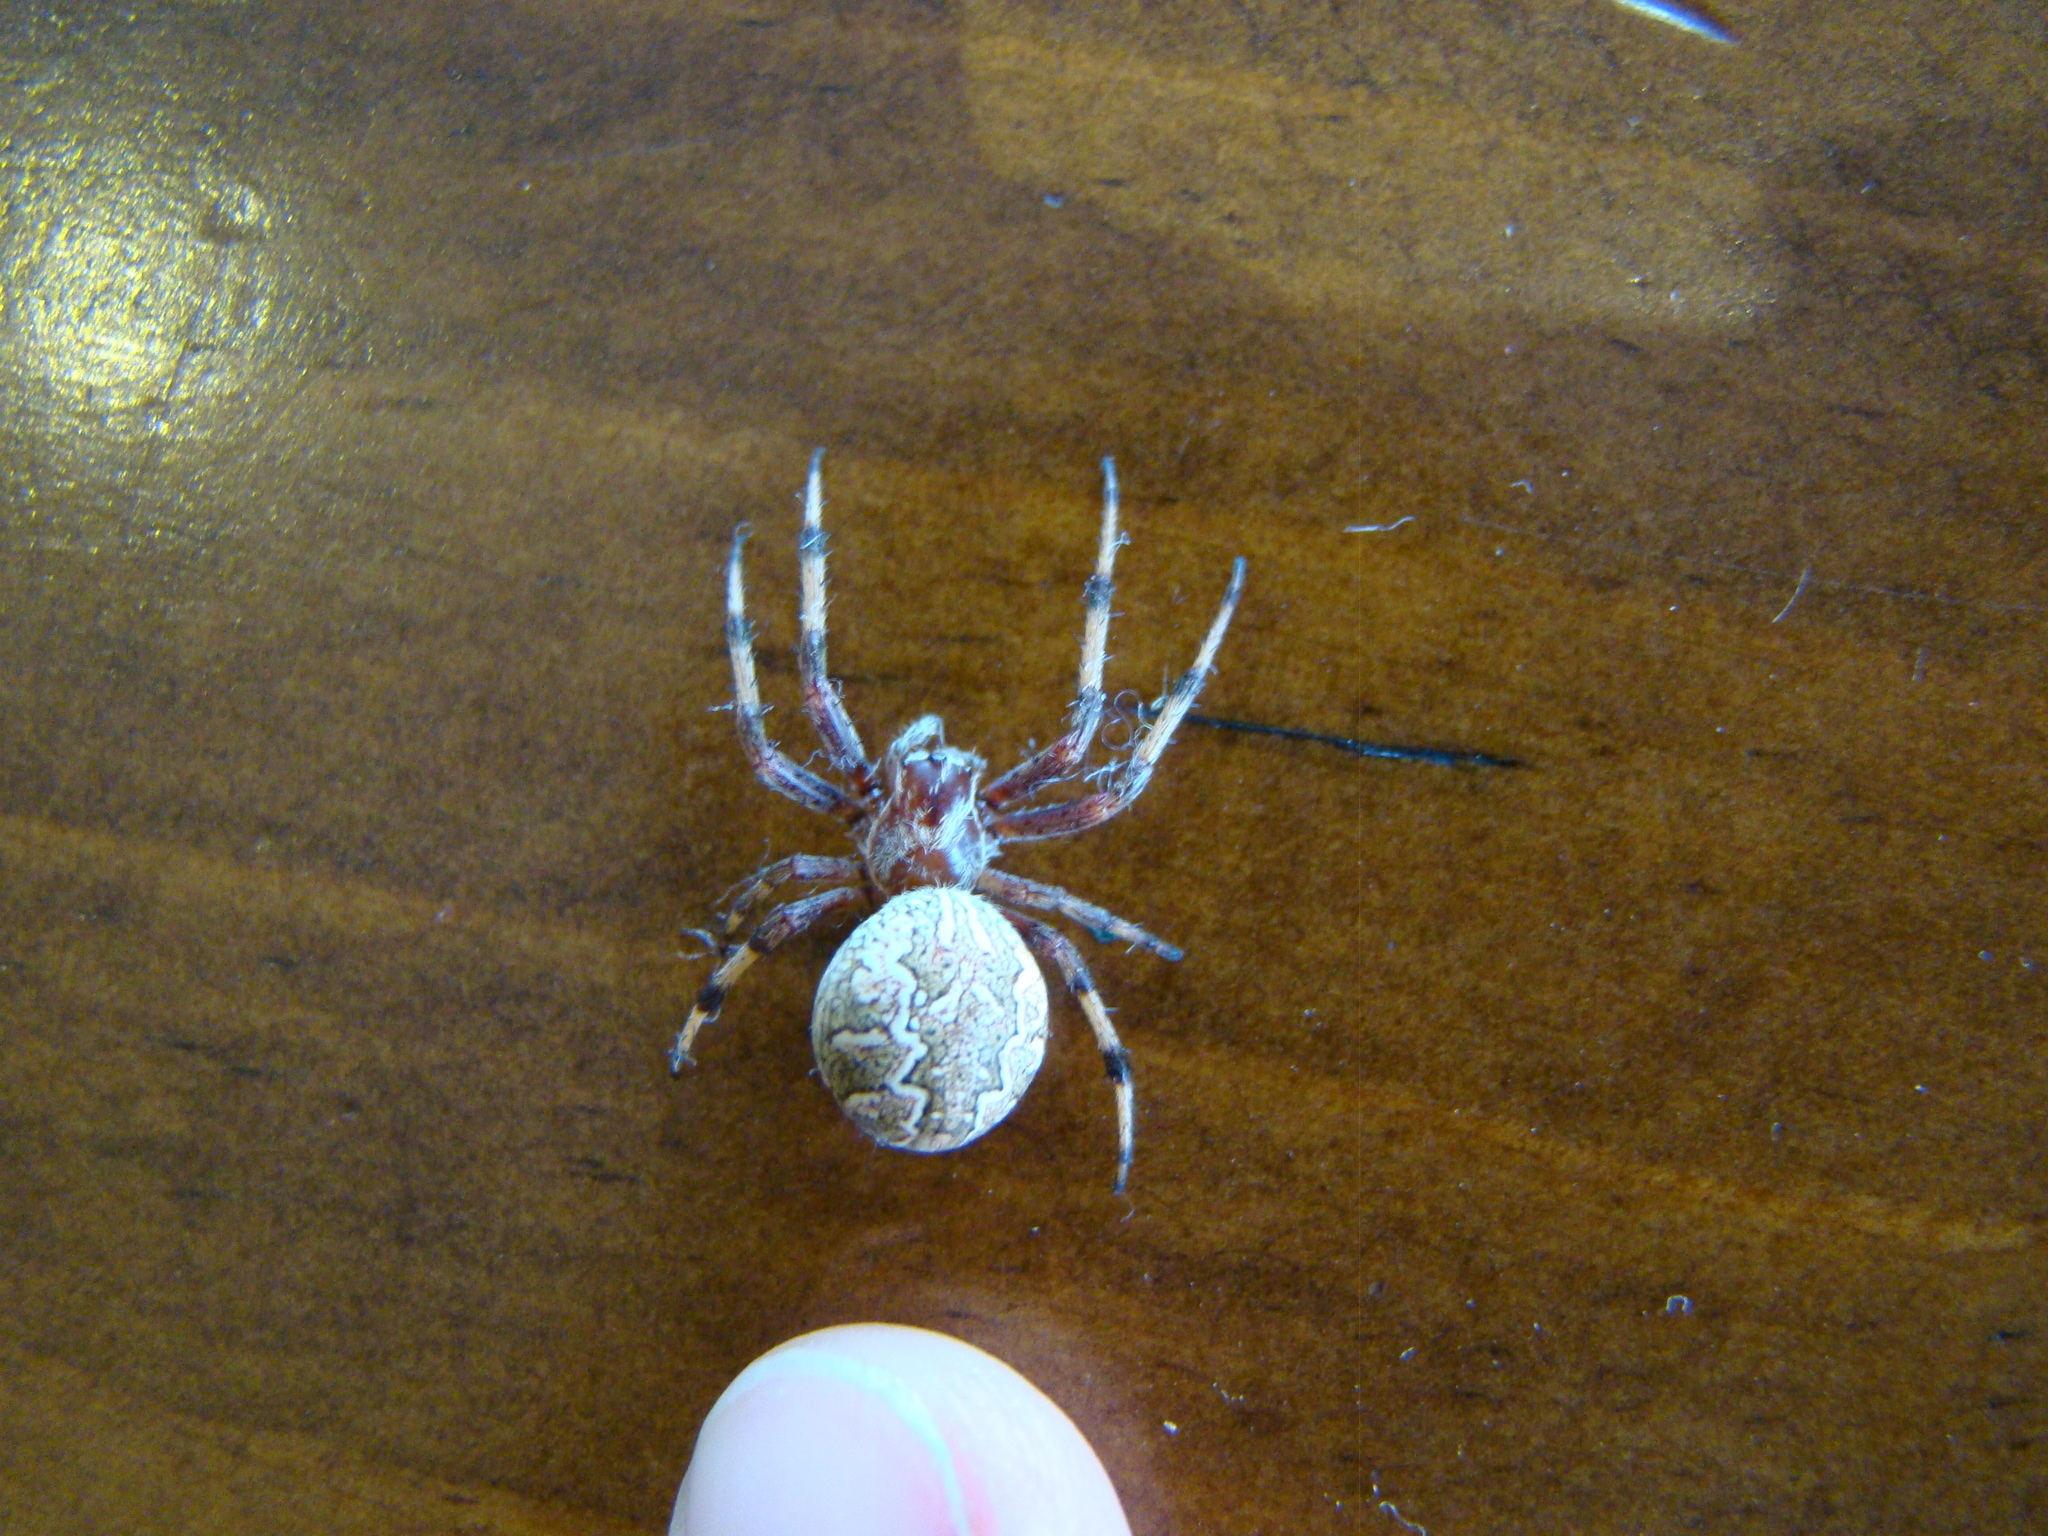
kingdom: Animalia
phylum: Arthropoda
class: Arachnida
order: Araneae
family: Araneidae
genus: Salsa
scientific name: Salsa fuliginata
